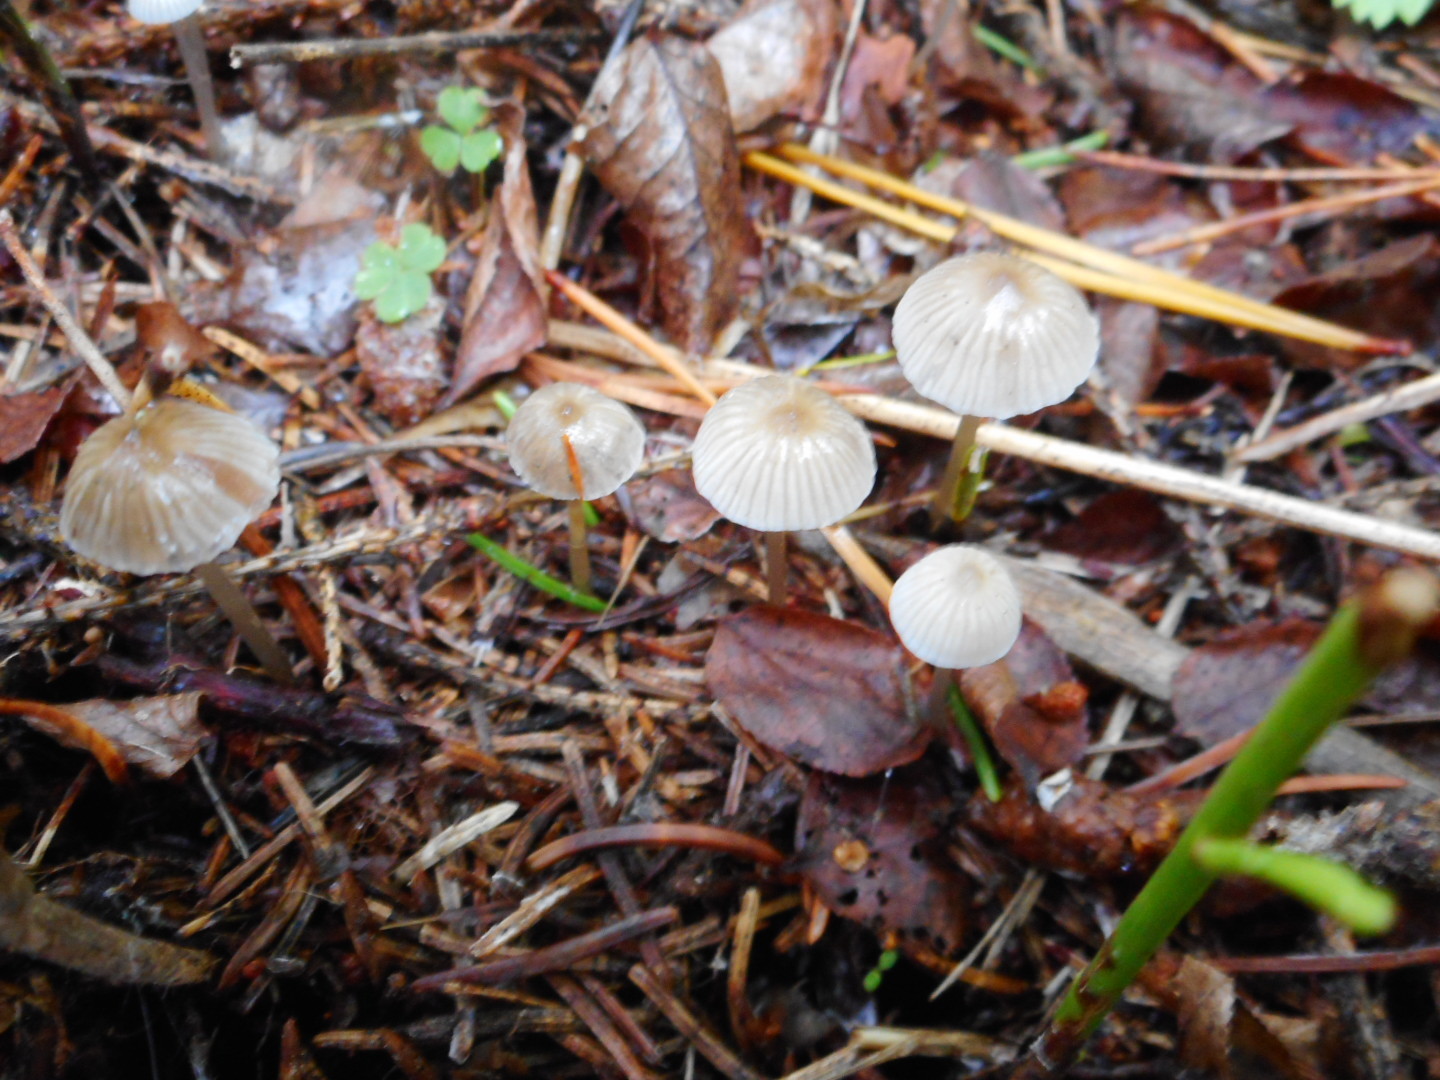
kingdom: Fungi
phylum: Basidiomycota
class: Agaricomycetes
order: Agaricales
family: Mycenaceae
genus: Mycena
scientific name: Mycena vulgaris
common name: Vulgar bonnet
